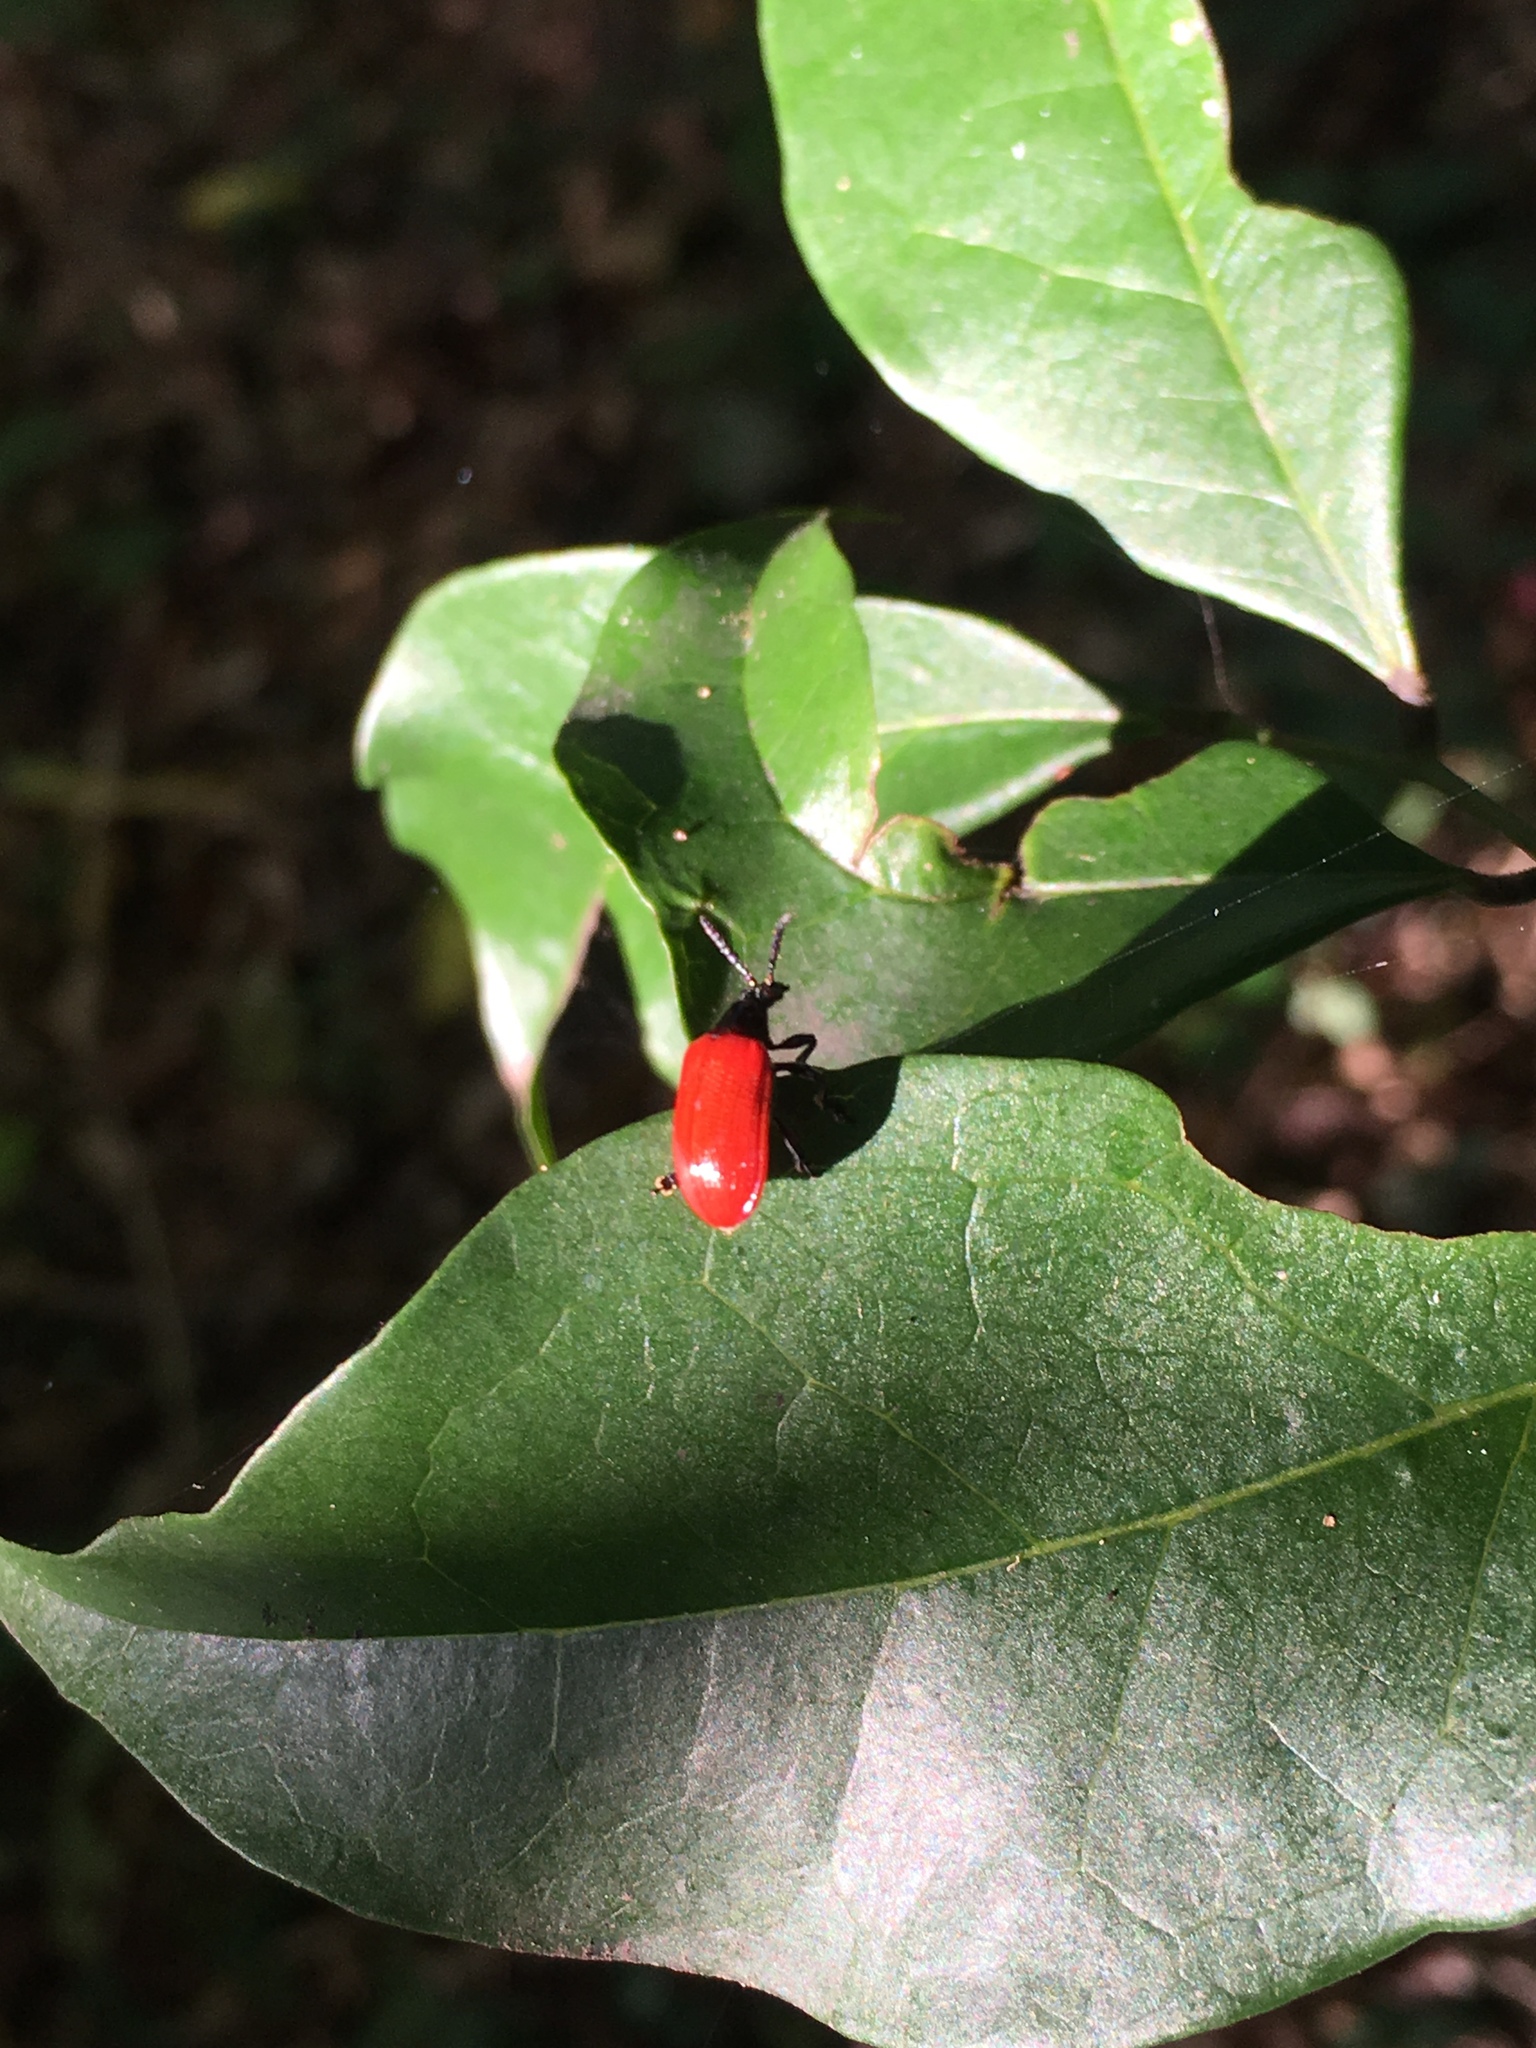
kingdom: Animalia
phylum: Arthropoda
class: Insecta
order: Coleoptera
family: Chrysomelidae
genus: Lilioceris
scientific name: Lilioceris cheni
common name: Leaf beetle
